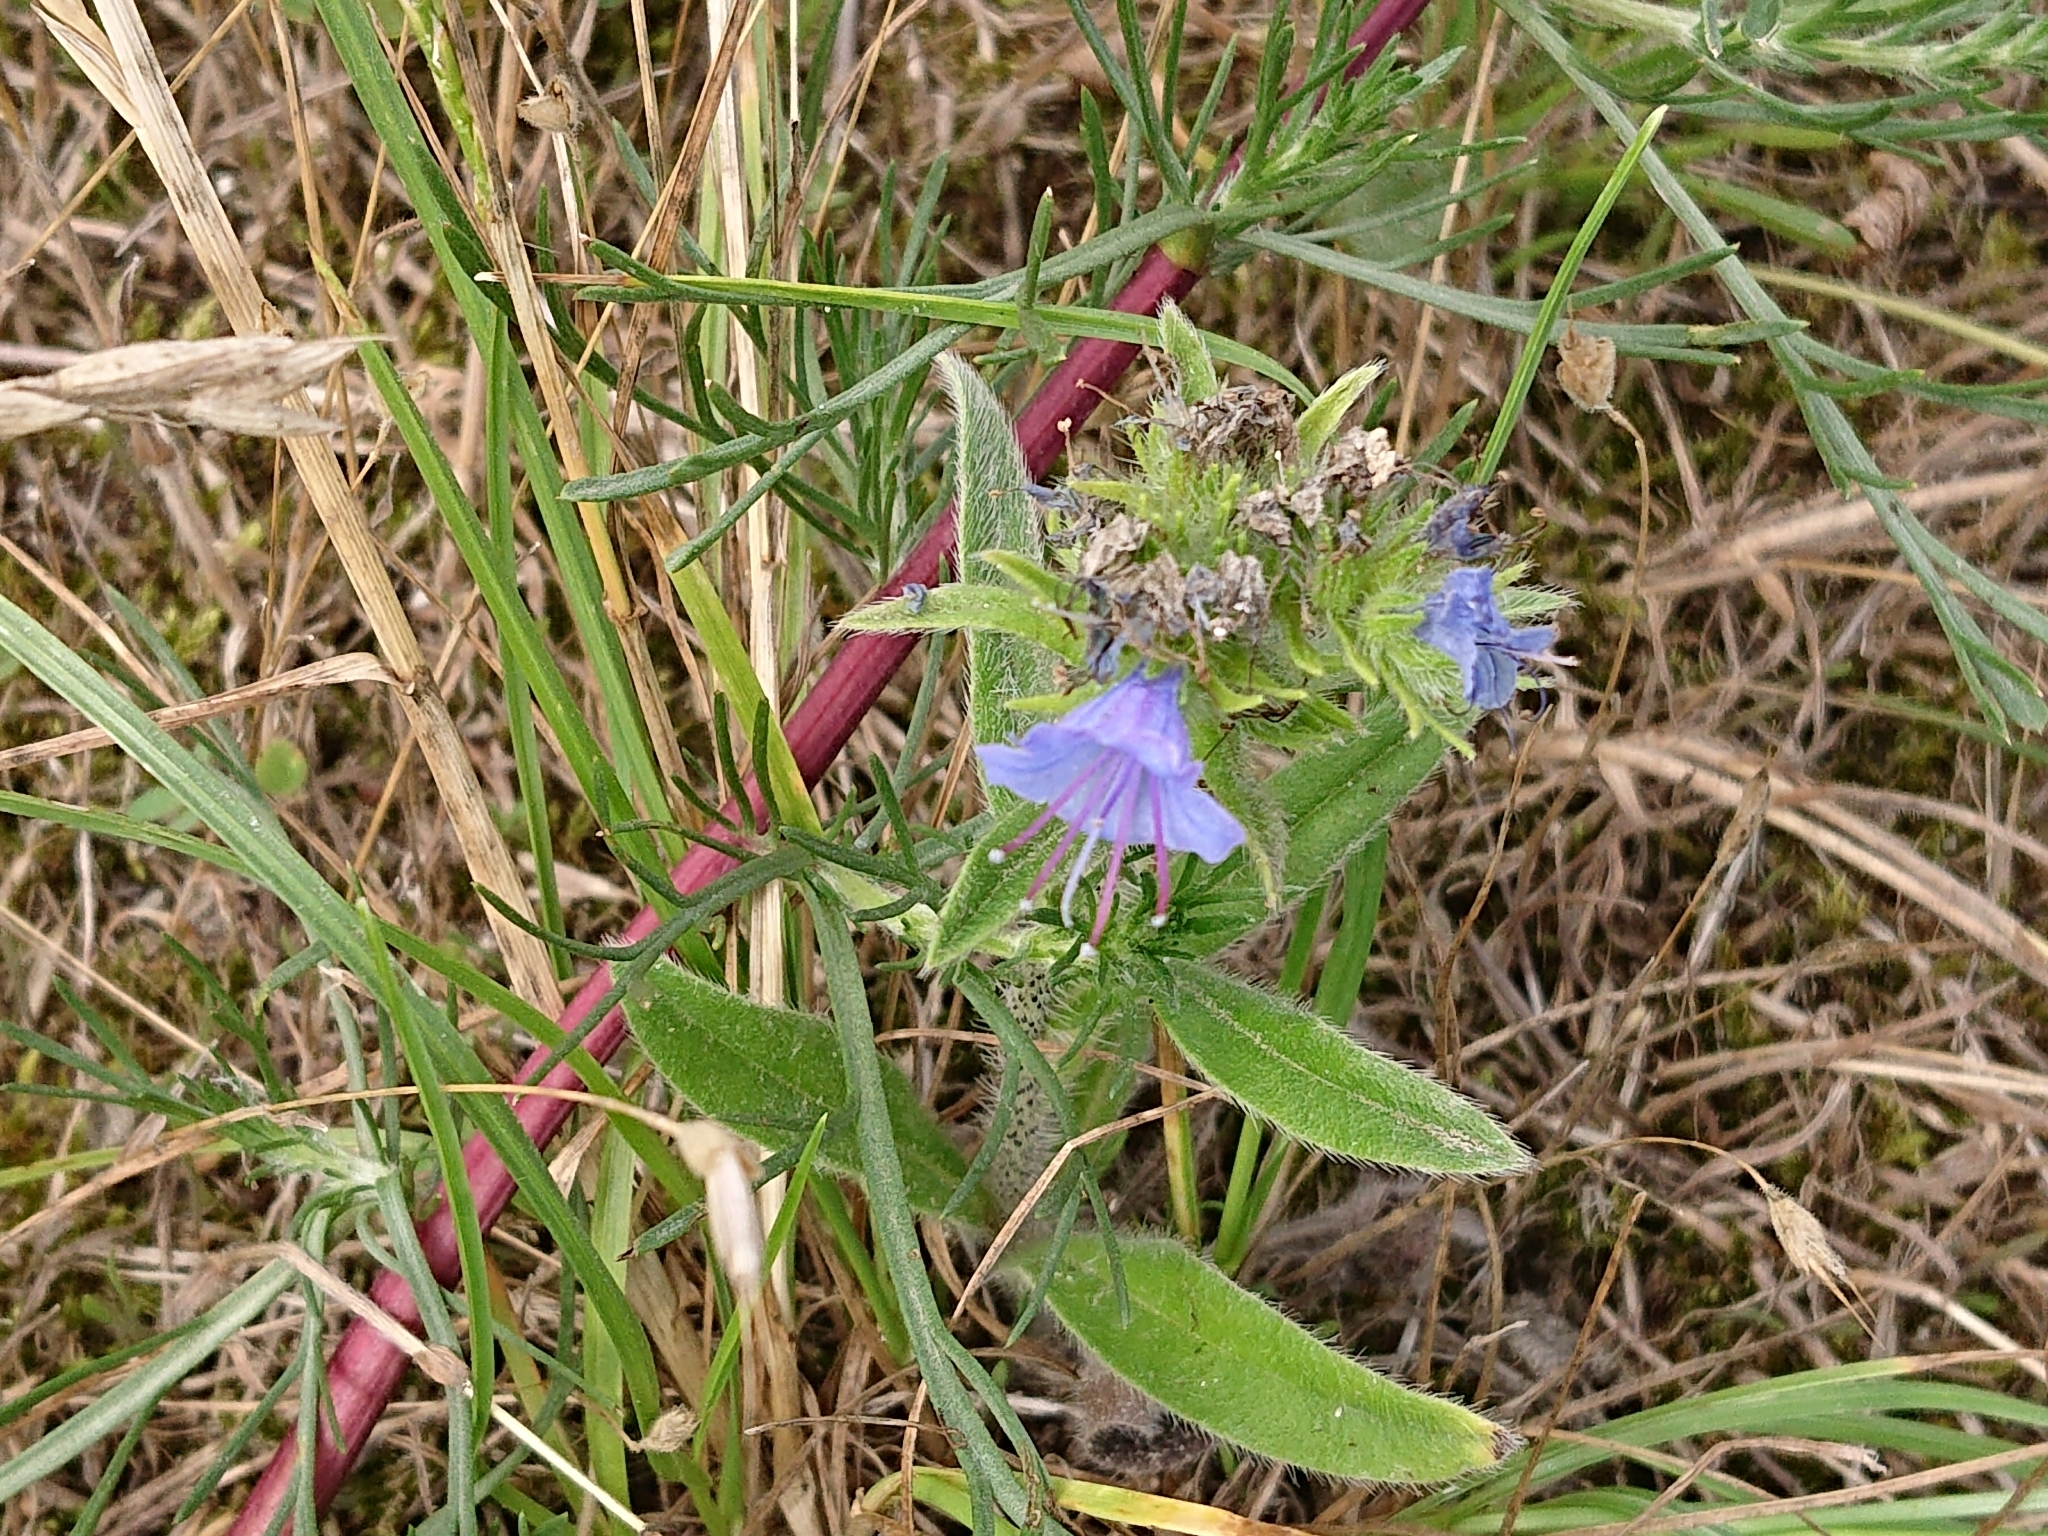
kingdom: Plantae
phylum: Tracheophyta
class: Magnoliopsida
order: Boraginales
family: Boraginaceae
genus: Echium
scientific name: Echium vulgare
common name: Common viper's bugloss
